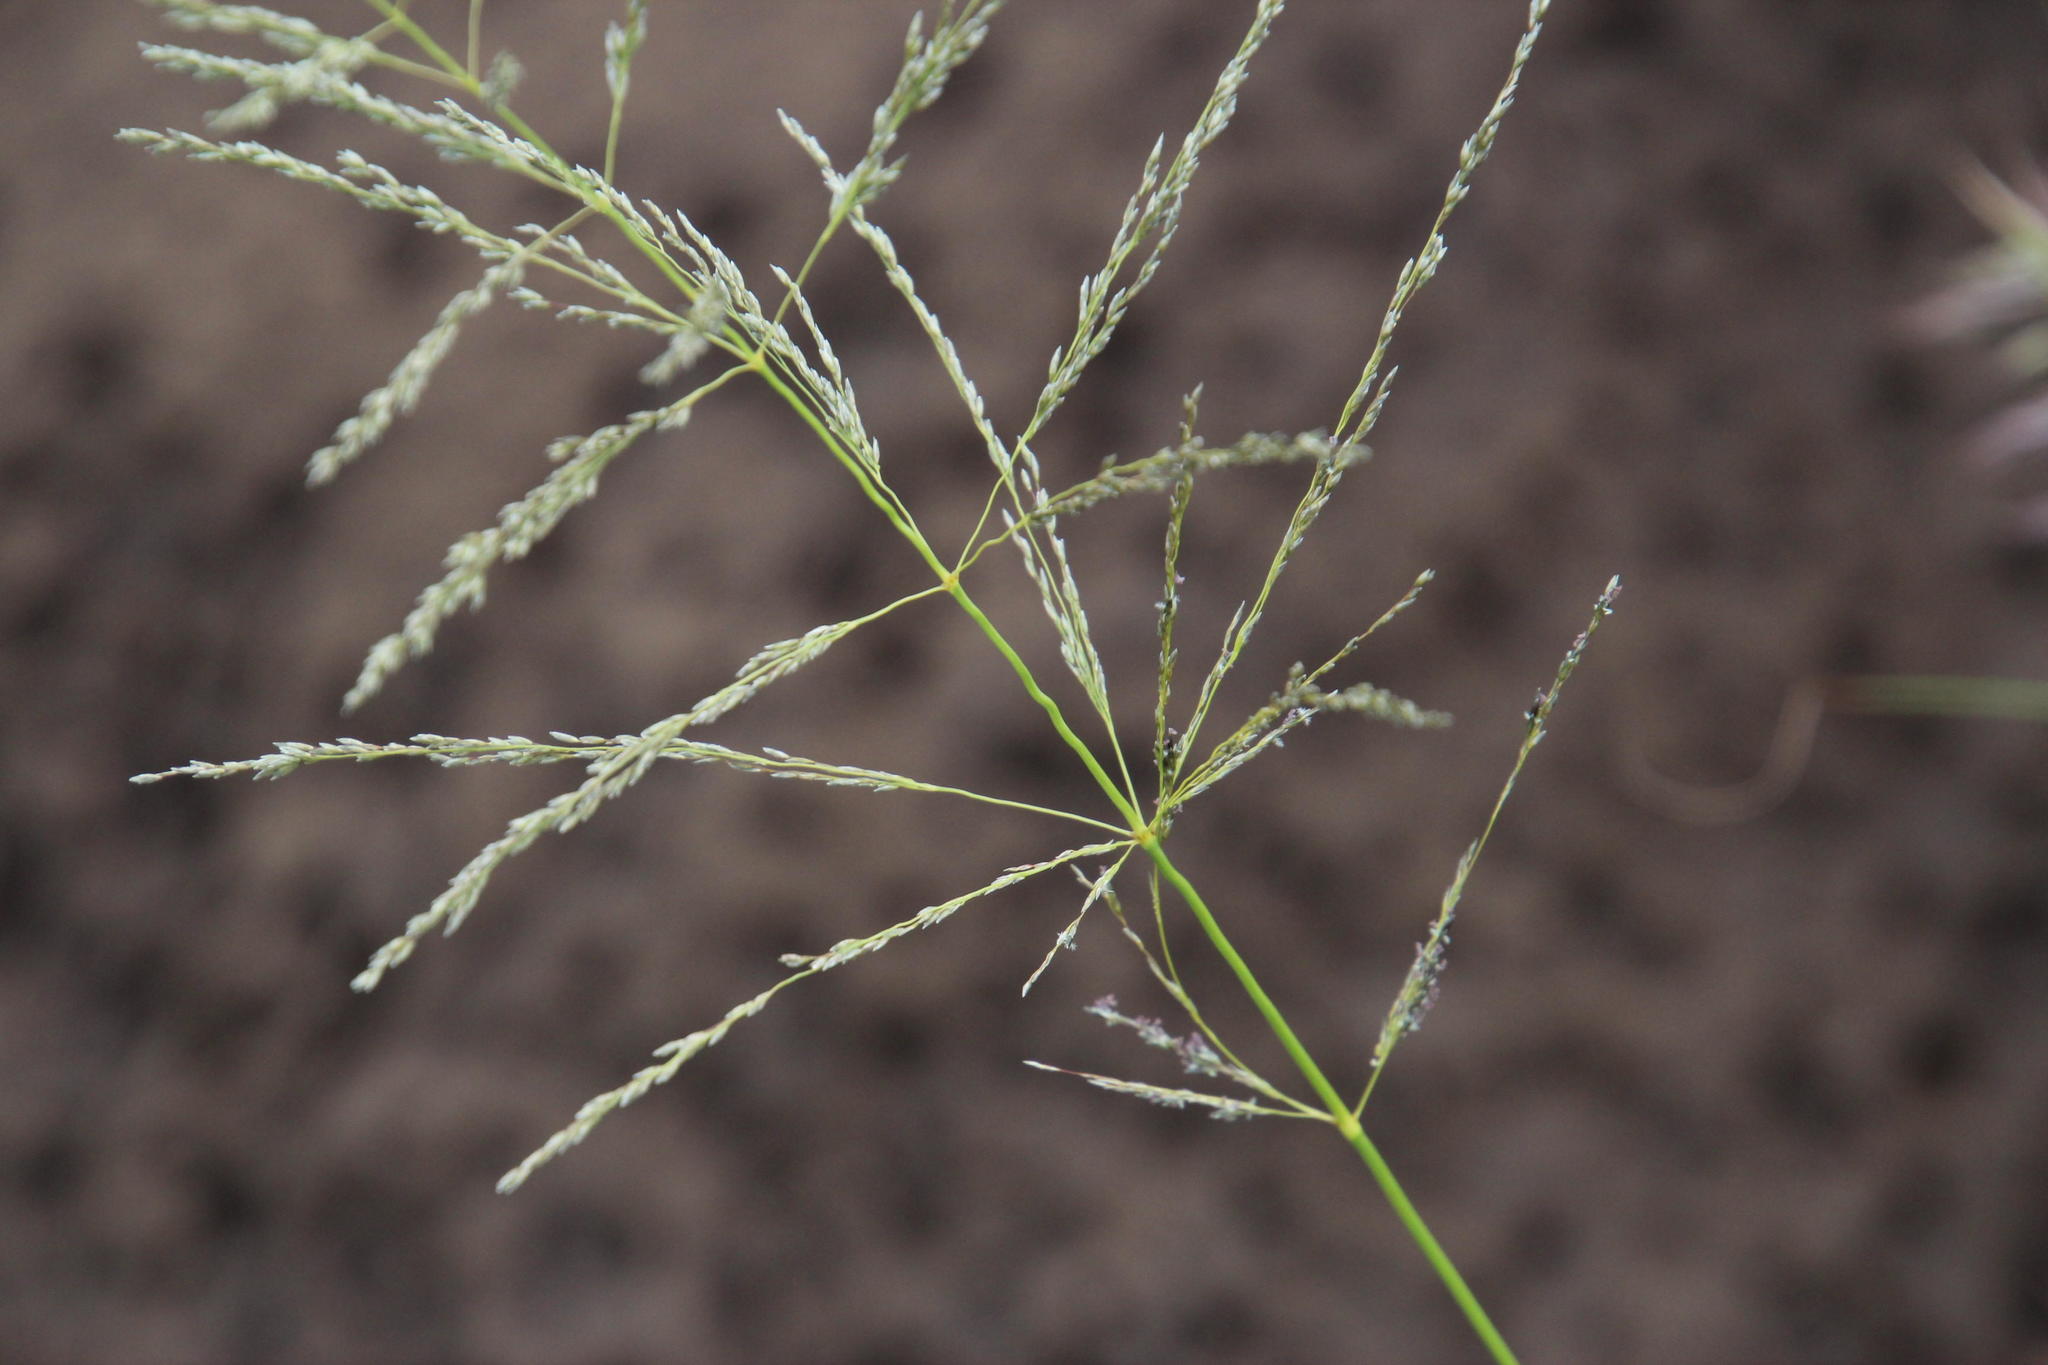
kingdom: Plantae
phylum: Tracheophyta
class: Liliopsida
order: Poales
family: Poaceae
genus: Eragrostis
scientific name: Eragrostis curvula
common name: African love-grass
